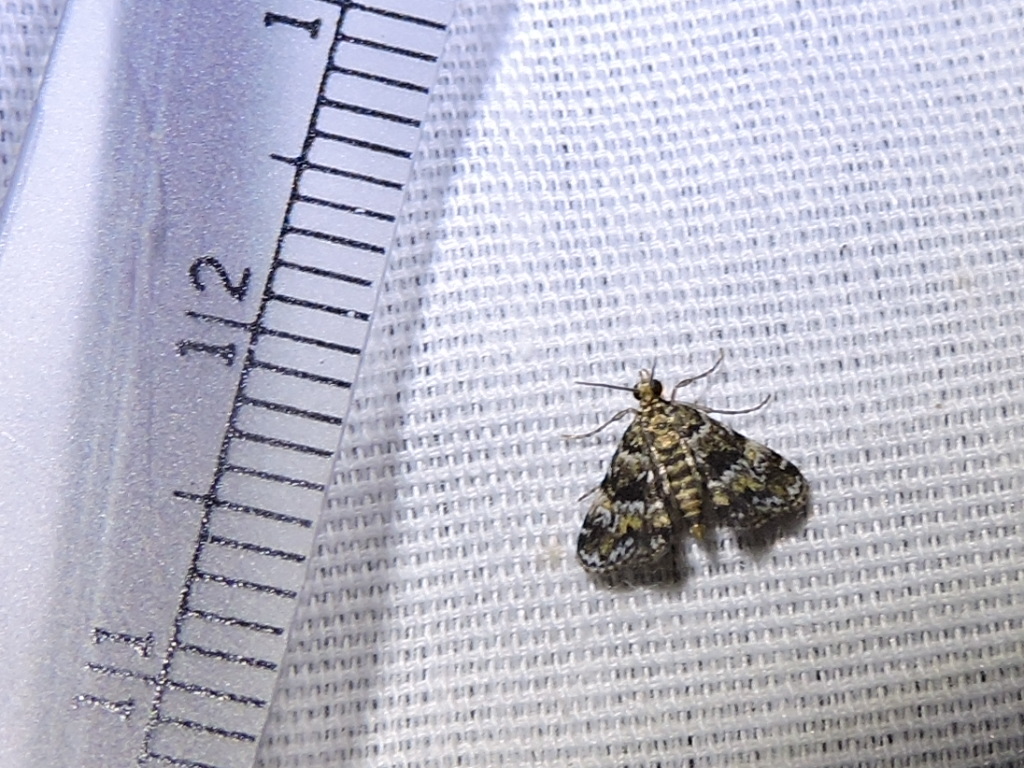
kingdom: Animalia
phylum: Arthropoda
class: Insecta
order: Lepidoptera
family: Crambidae
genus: Elophila
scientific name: Elophila obliteralis
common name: Waterlily leafcutter moth
